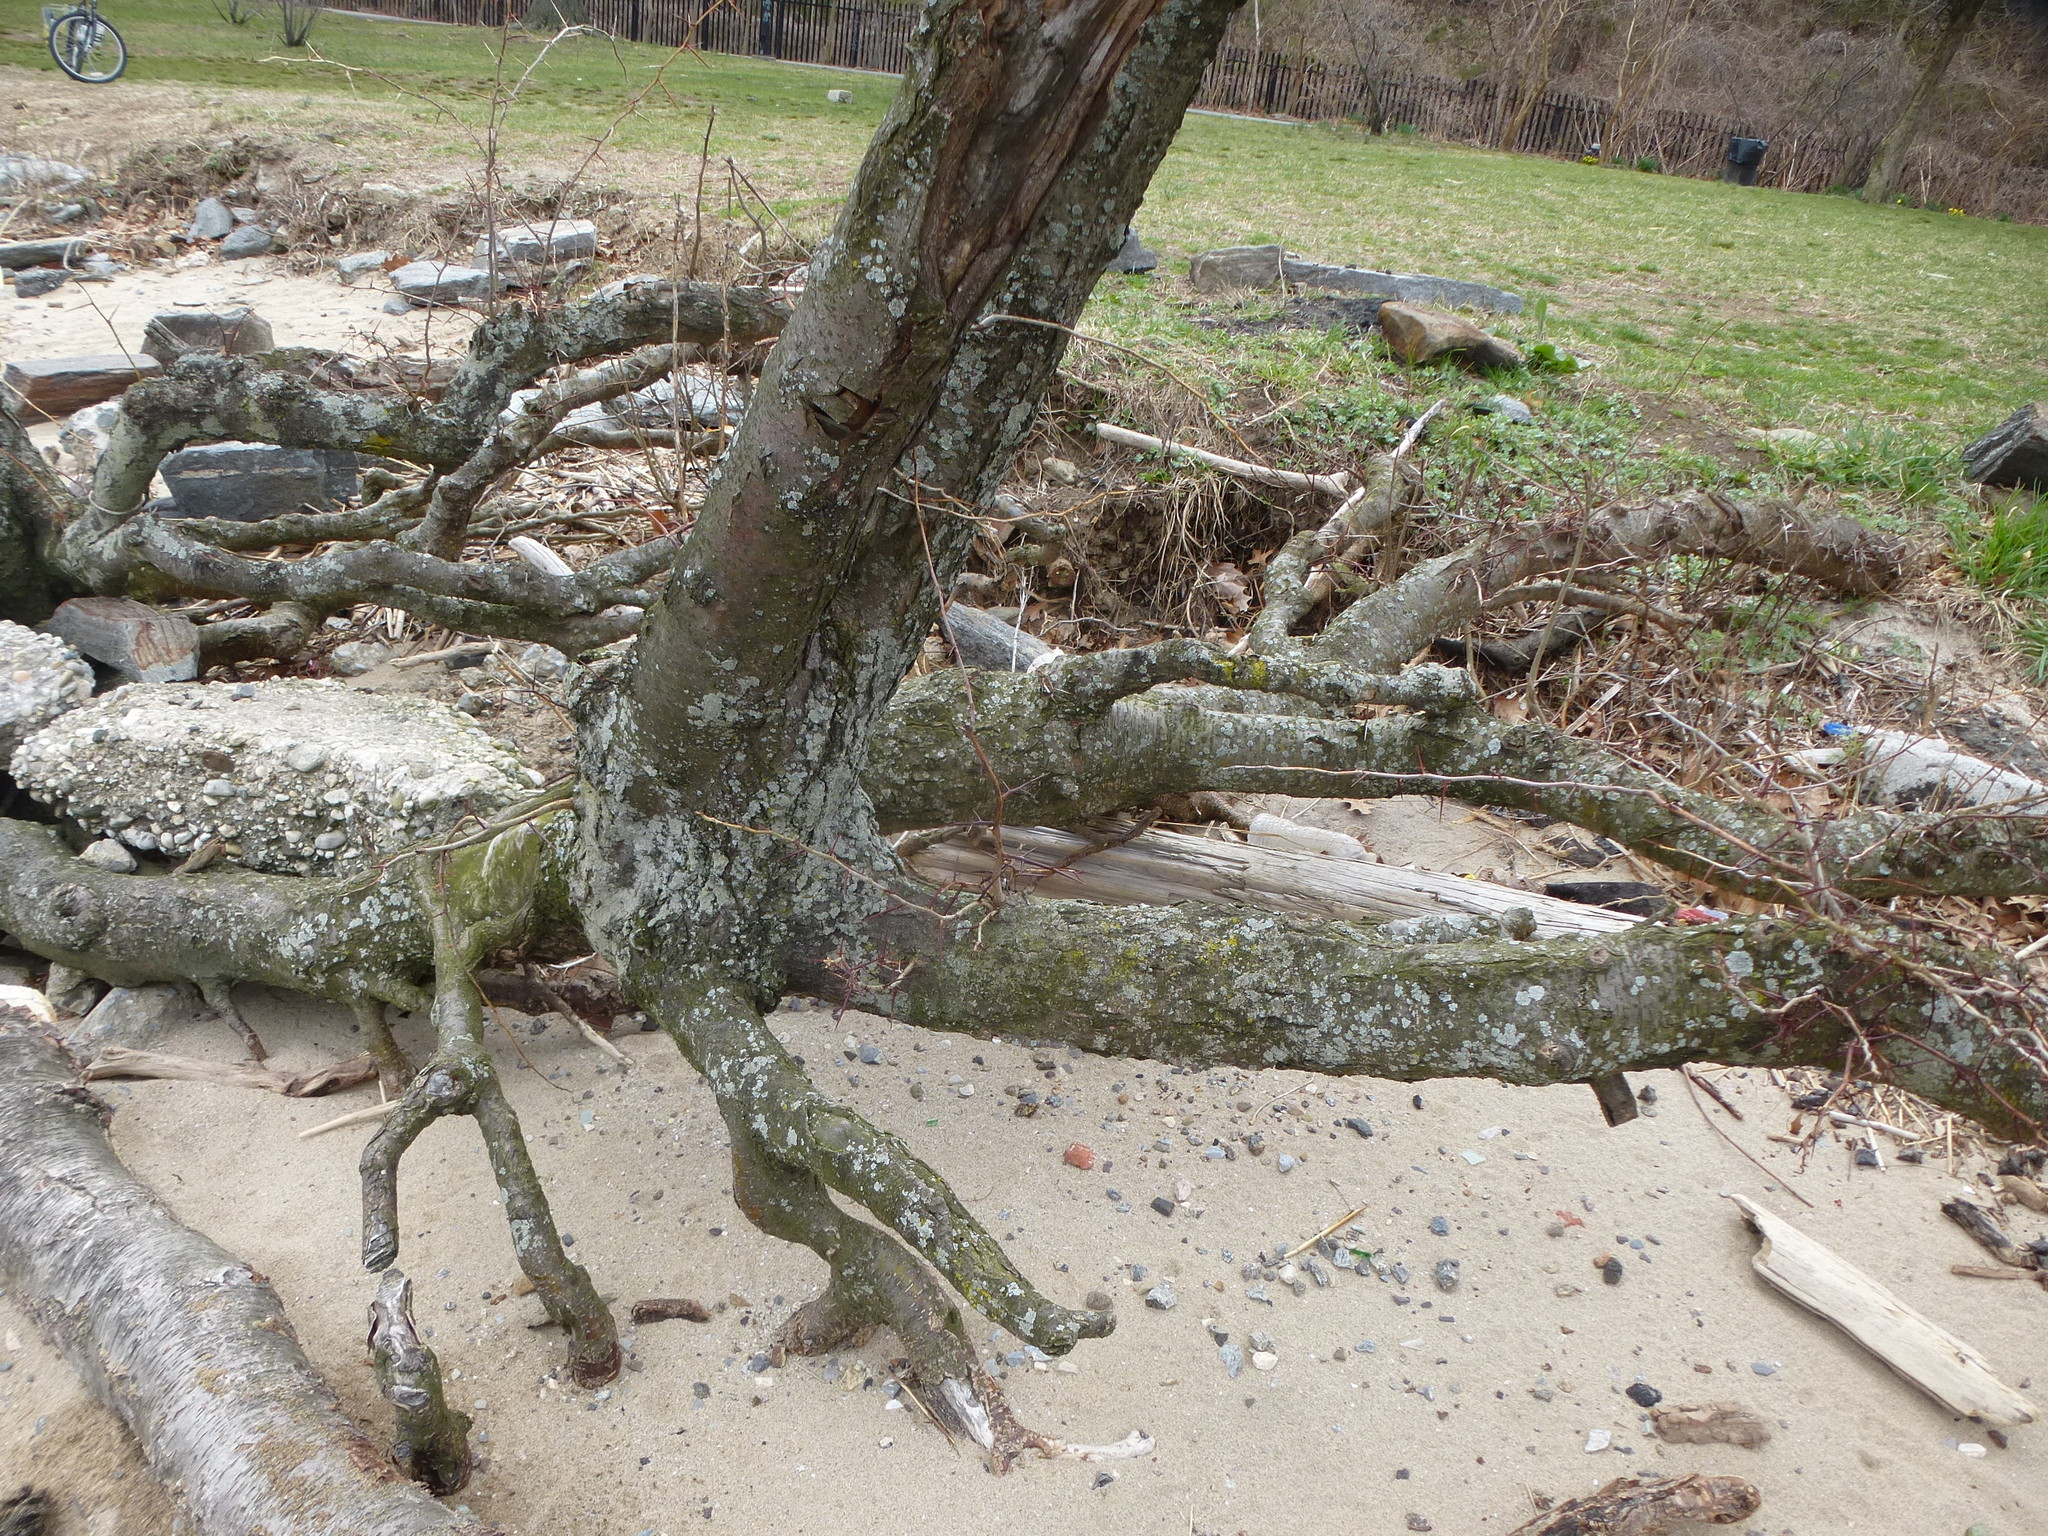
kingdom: Plantae
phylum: Tracheophyta
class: Magnoliopsida
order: Fabales
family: Fabaceae
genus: Gleditsia
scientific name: Gleditsia triacanthos
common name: Common honeylocust
